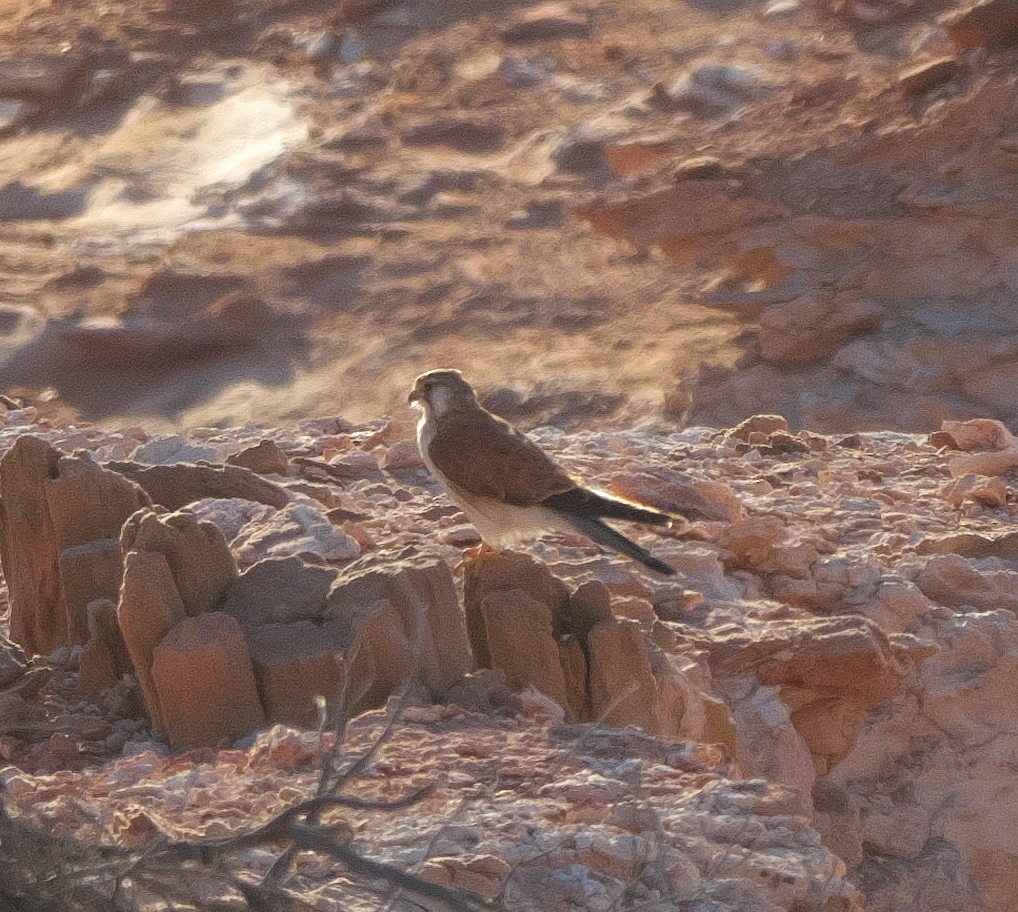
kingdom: Animalia
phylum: Chordata
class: Aves
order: Falconiformes
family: Falconidae
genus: Falco
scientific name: Falco cenchroides
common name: Nankeen kestrel
